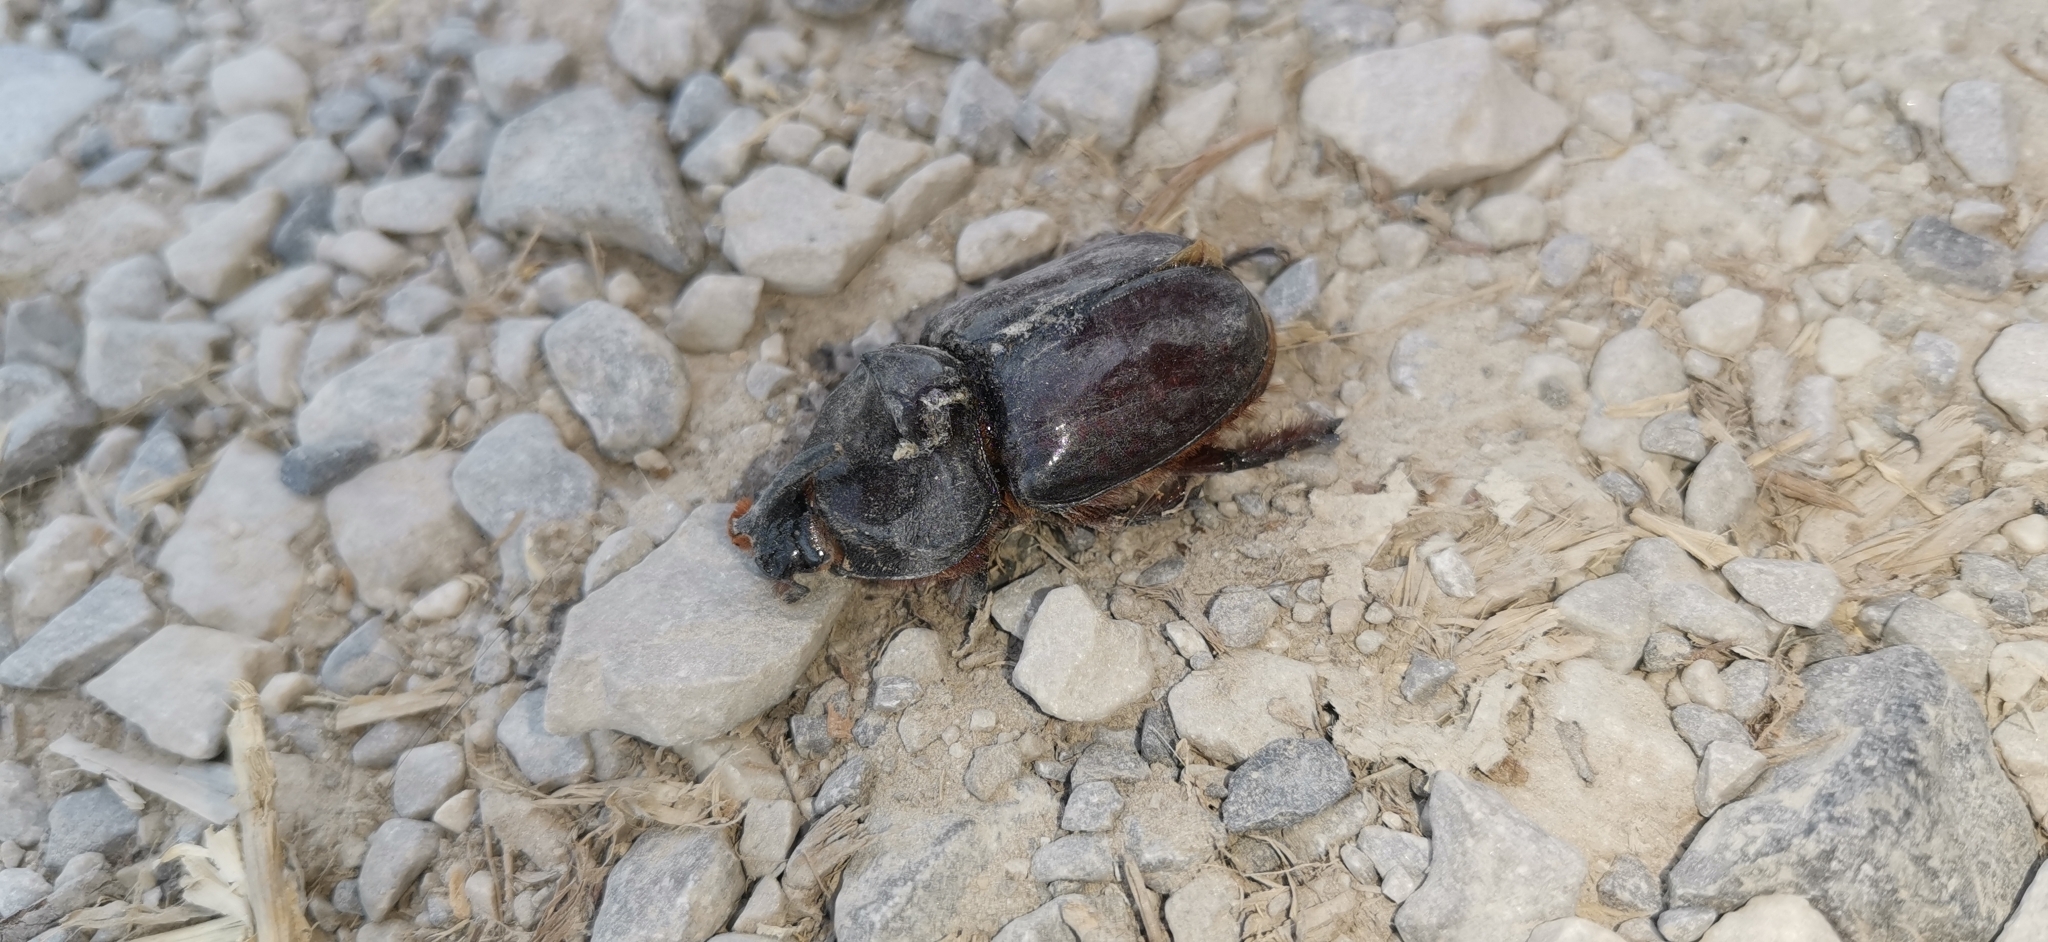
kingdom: Animalia
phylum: Arthropoda
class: Insecta
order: Coleoptera
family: Scarabaeidae
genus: Oryctes
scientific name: Oryctes nasicornis
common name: European rhinoceros beetle
